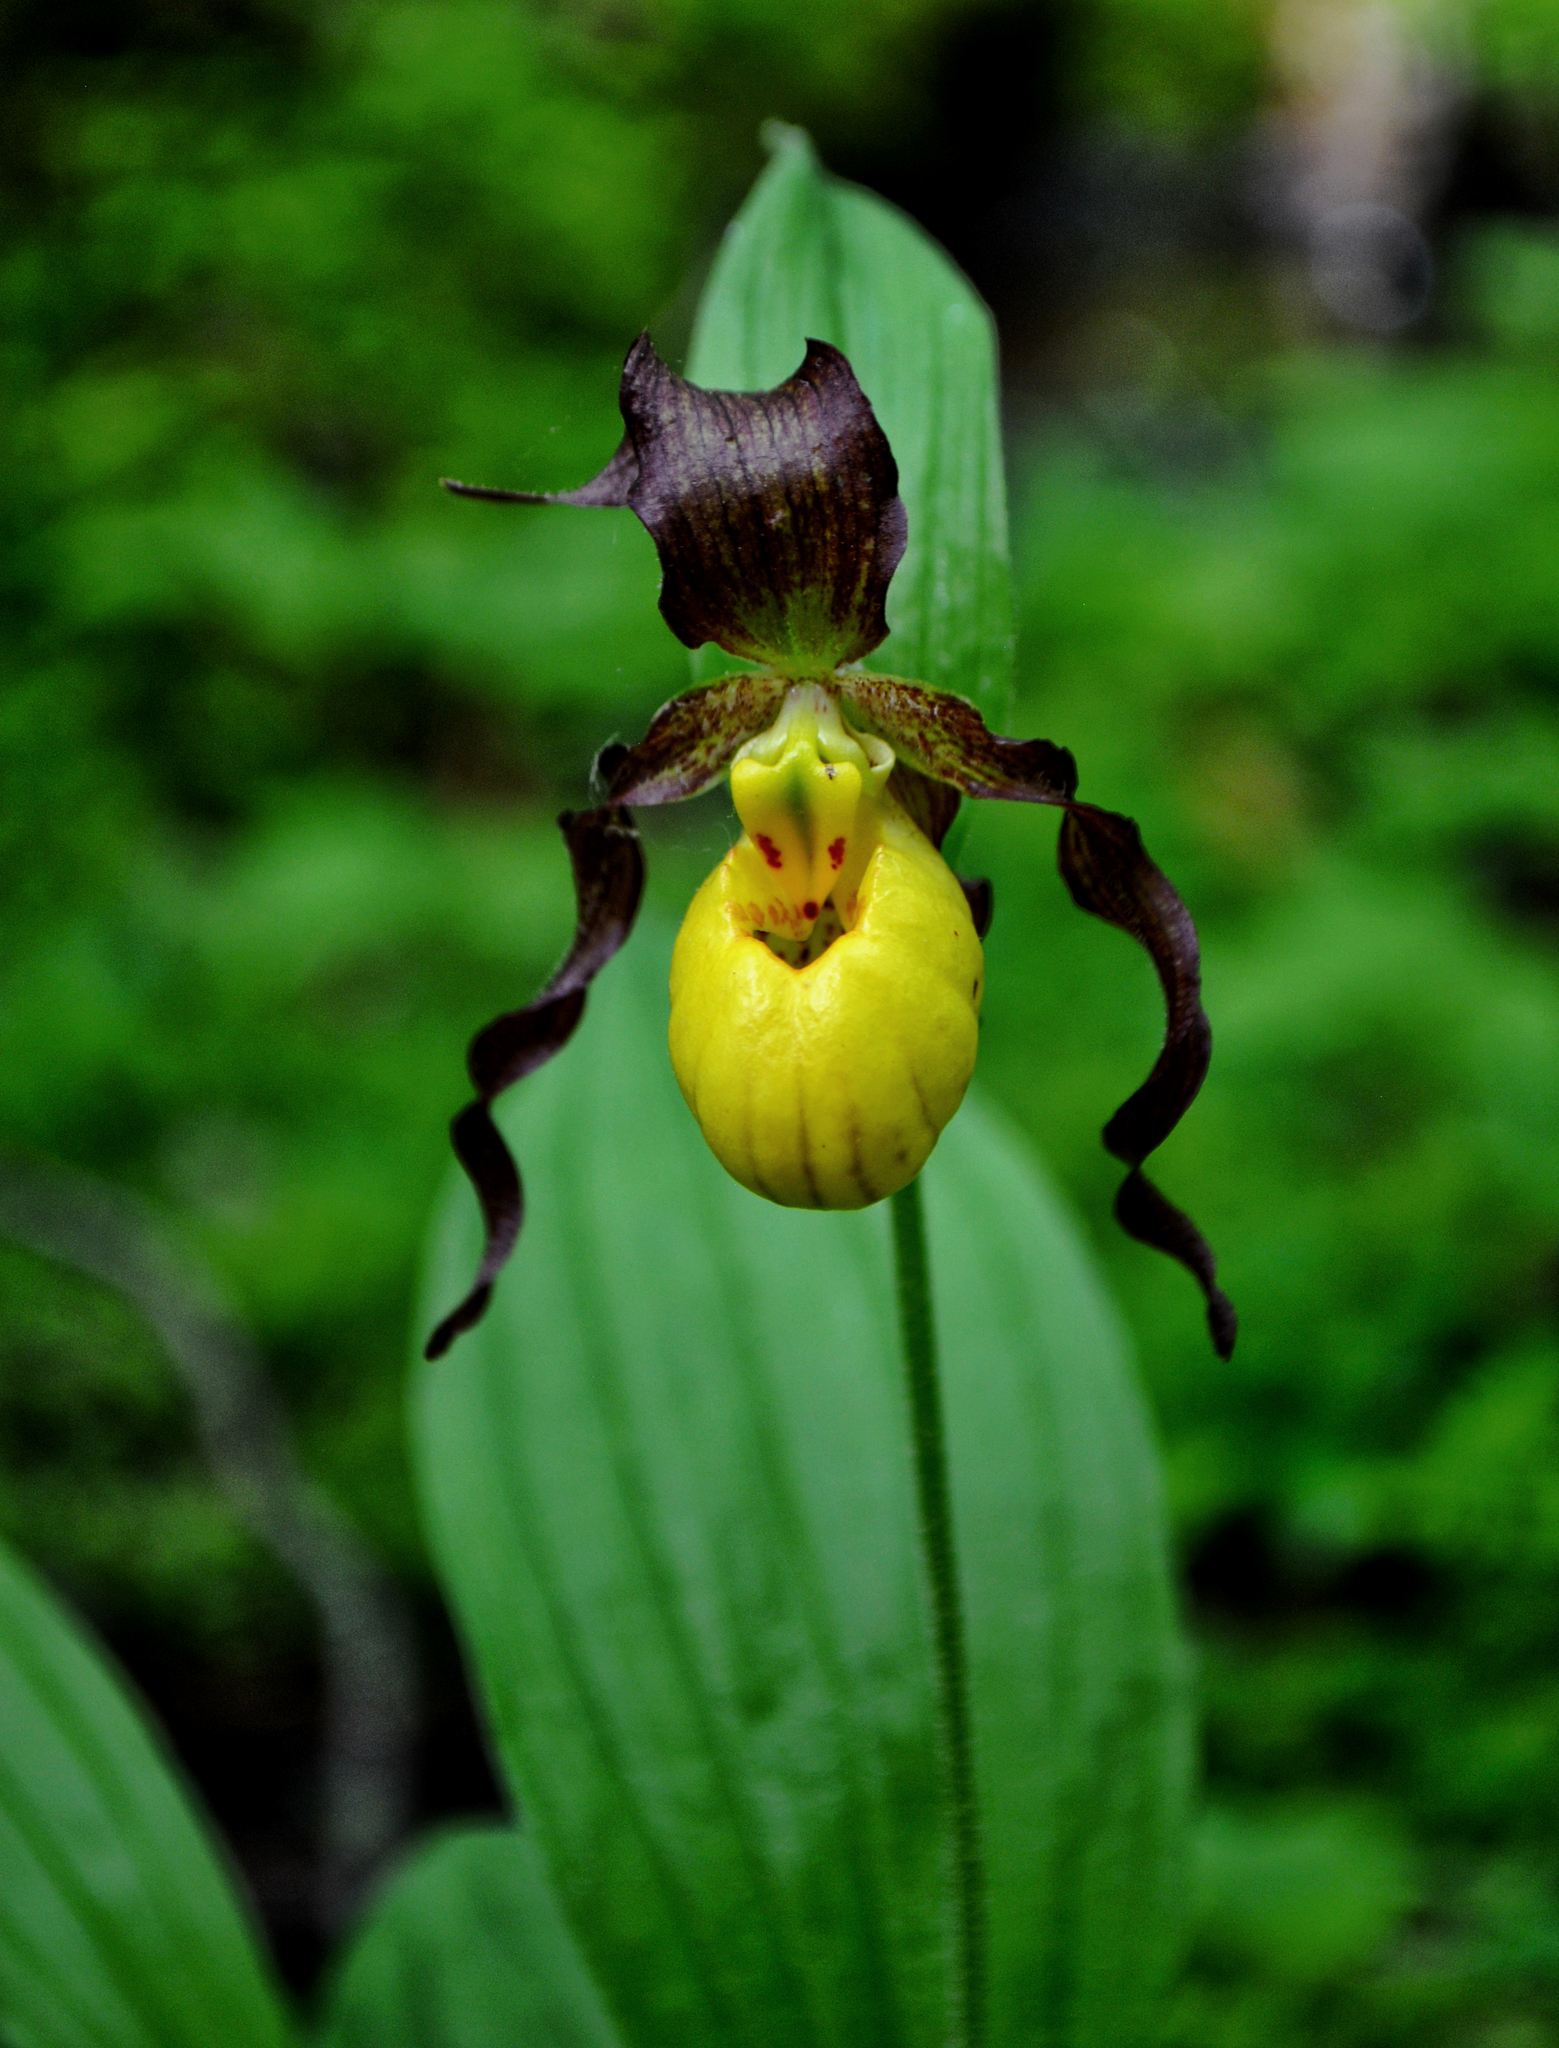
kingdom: Plantae
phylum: Tracheophyta
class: Liliopsida
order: Asparagales
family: Orchidaceae
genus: Cypripedium
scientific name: Cypripedium parviflorum
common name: American yellow lady's-slipper
